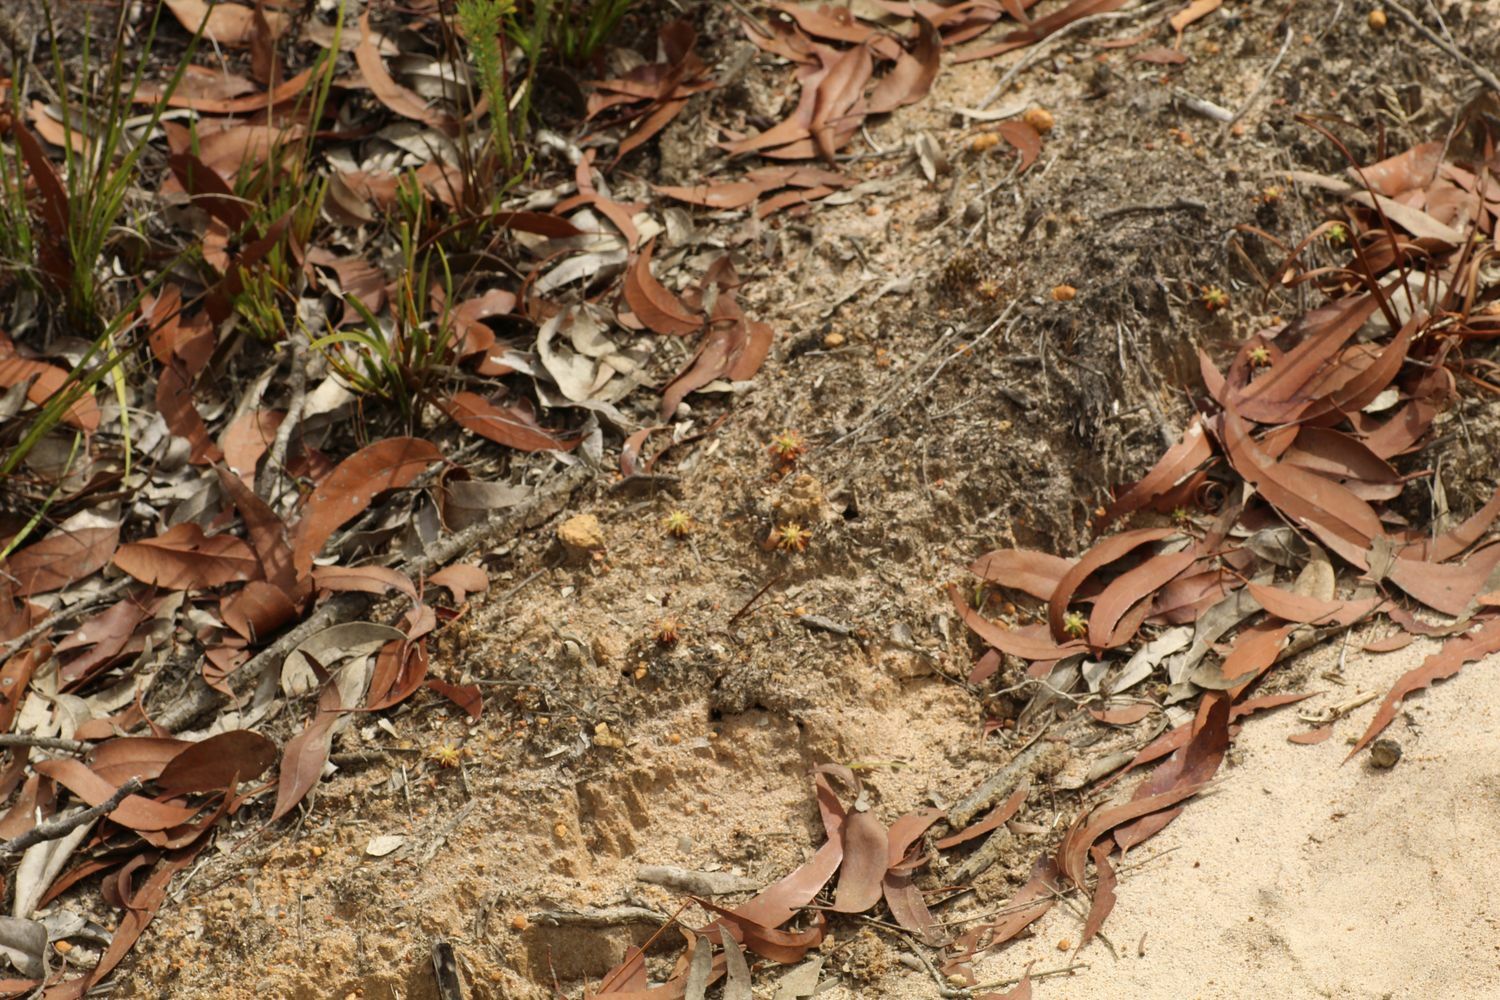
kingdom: Plantae
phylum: Tracheophyta
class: Magnoliopsida
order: Caryophyllales
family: Droseraceae
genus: Drosera
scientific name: Drosera paleacea
